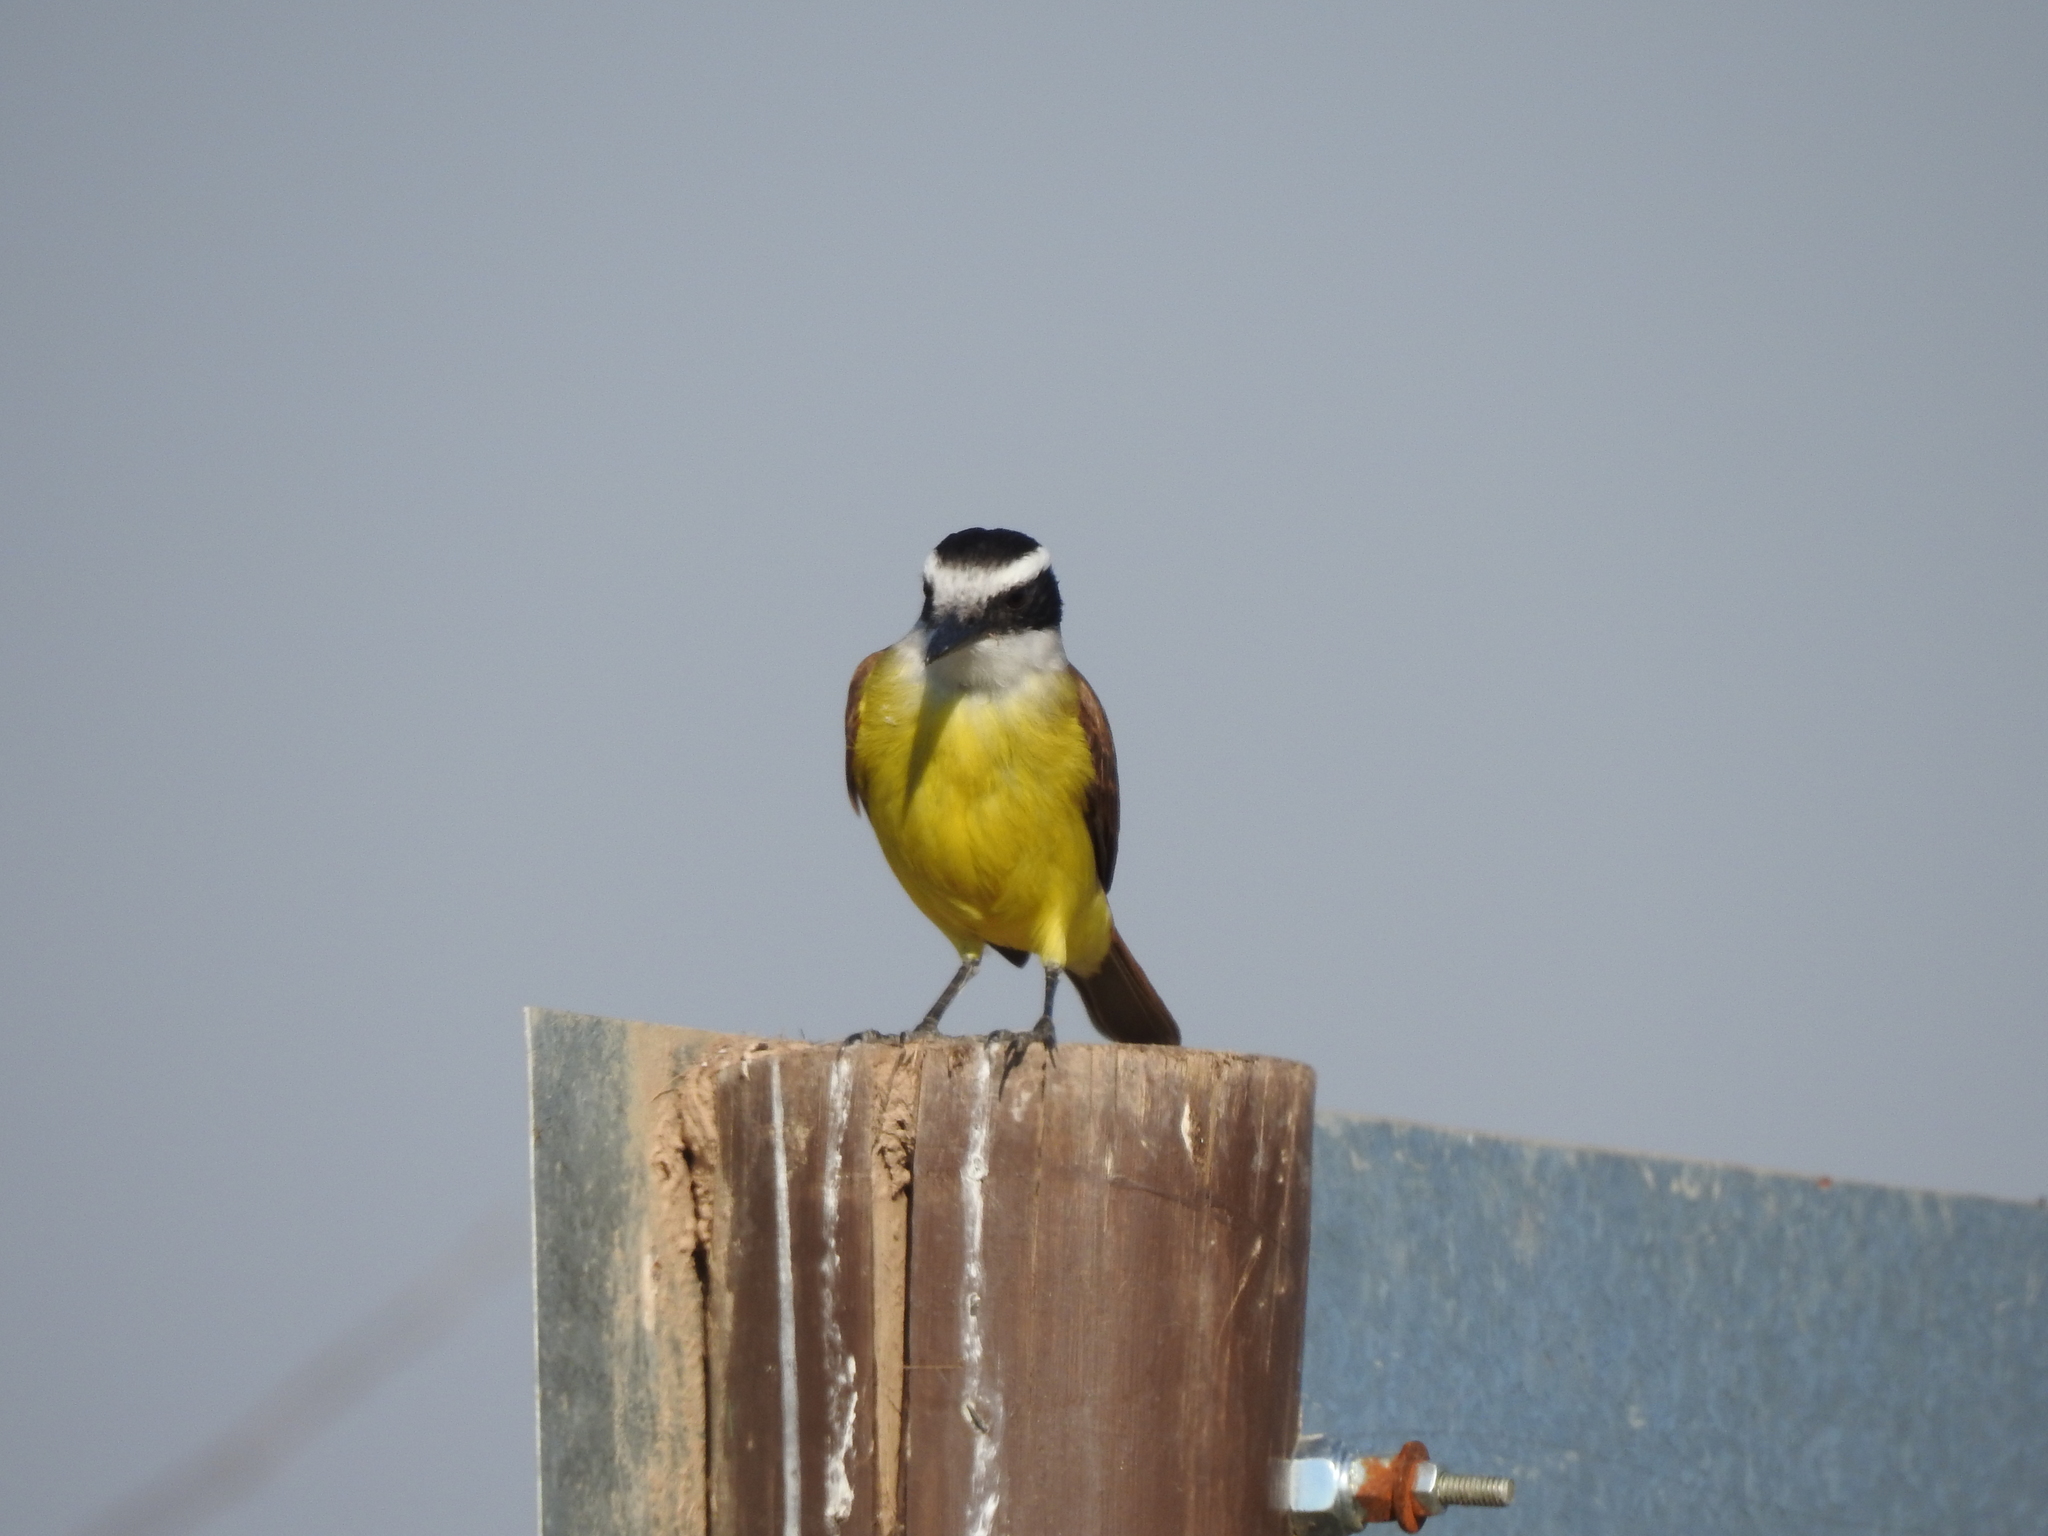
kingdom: Animalia
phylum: Chordata
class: Aves
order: Passeriformes
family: Tyrannidae
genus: Pitangus
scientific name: Pitangus sulphuratus
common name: Great kiskadee
